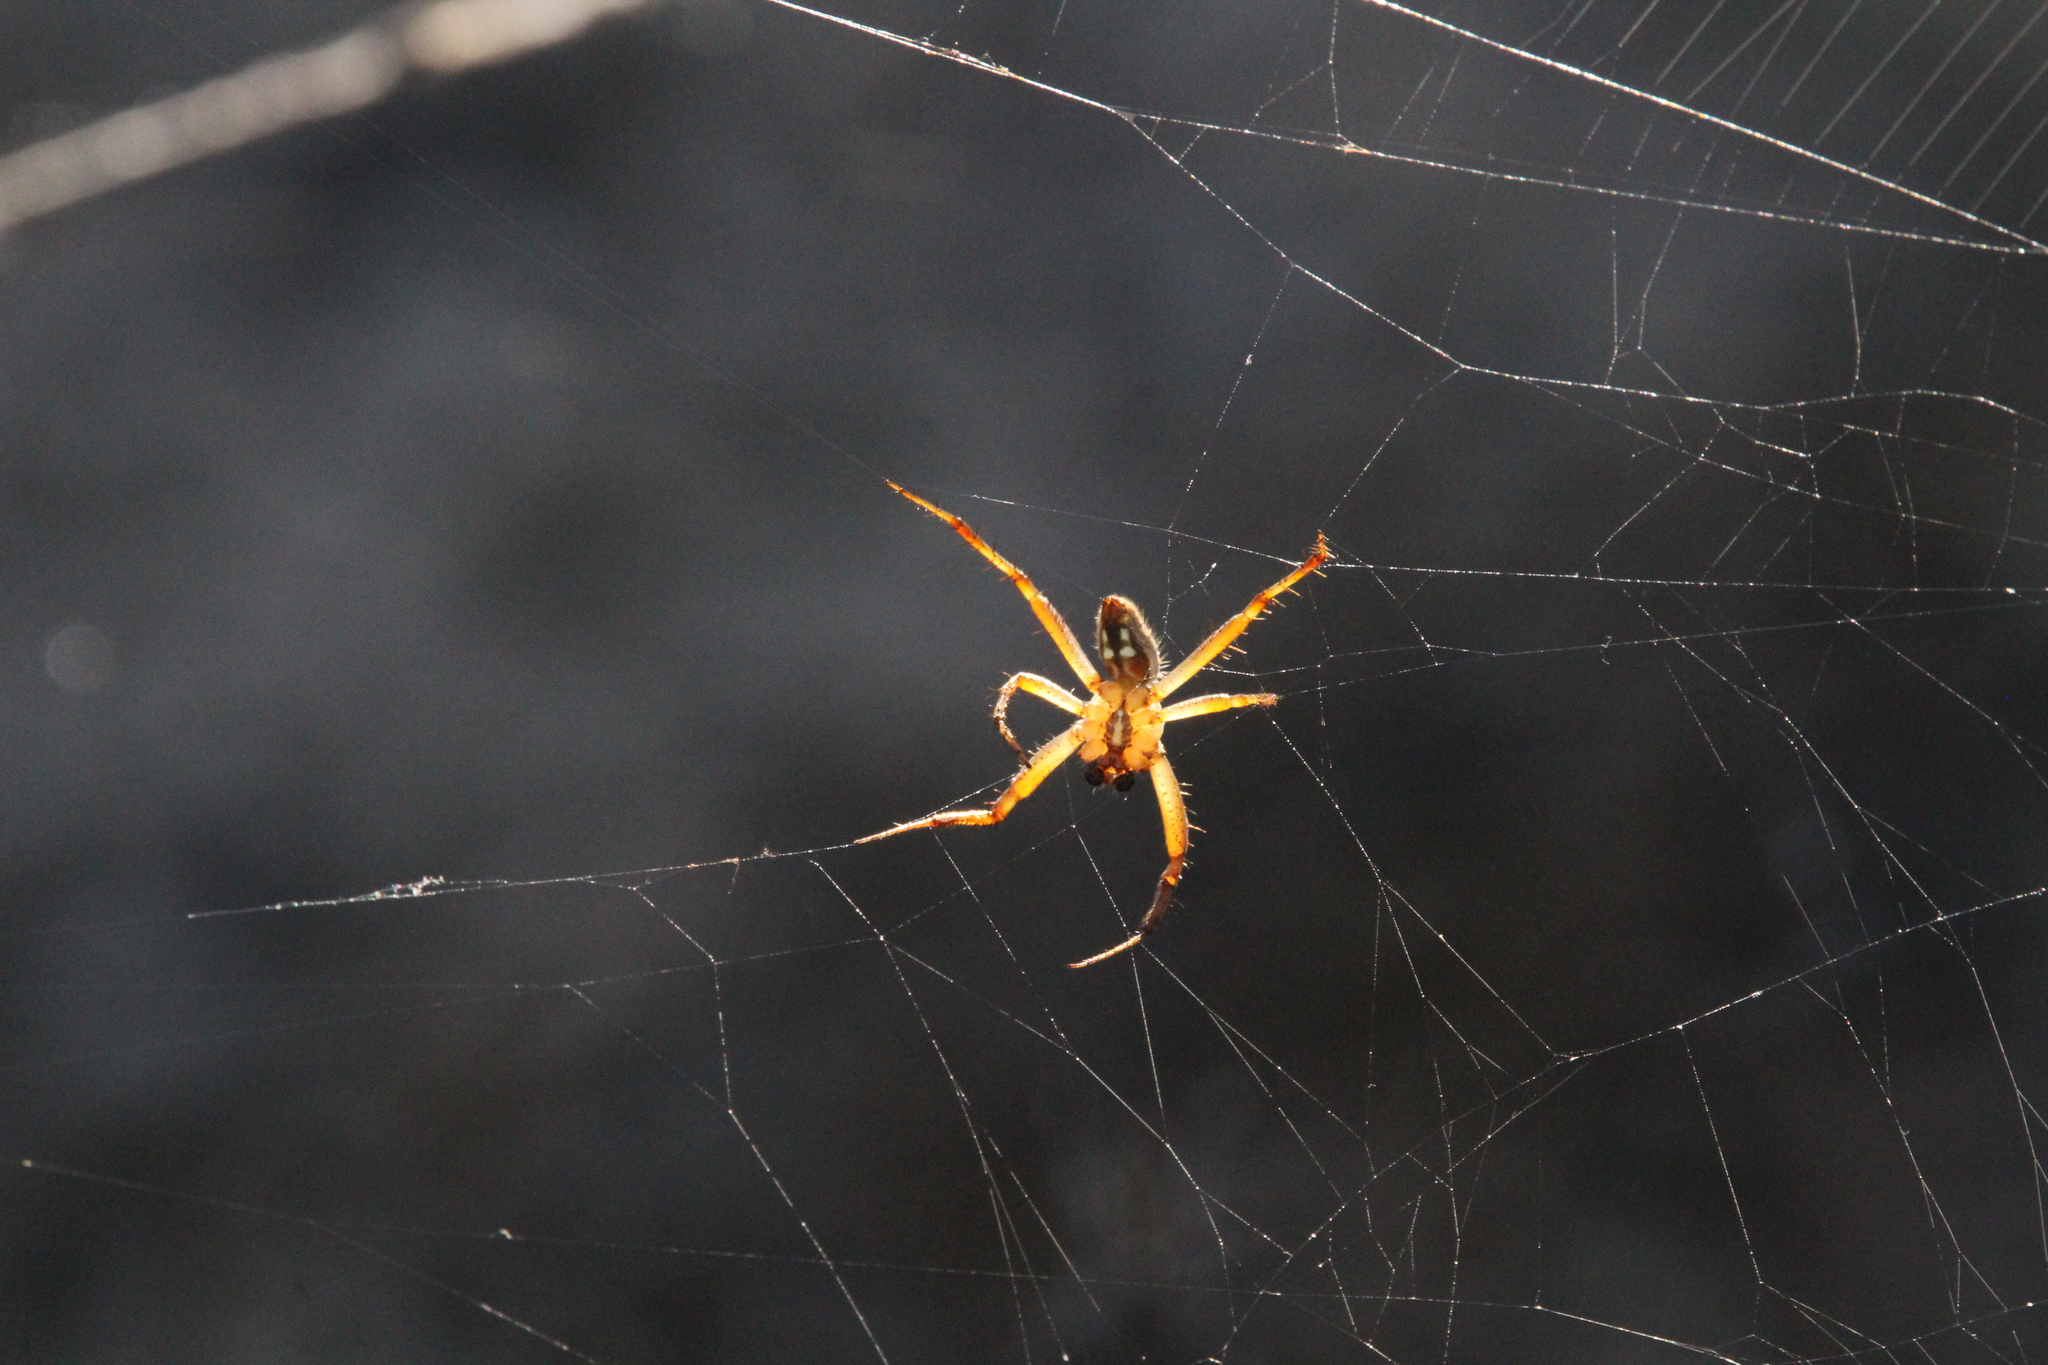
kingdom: Animalia
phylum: Arthropoda
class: Arachnida
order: Araneae
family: Araneidae
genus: Neoscona
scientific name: Neoscona oaxacensis
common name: Orb weavers
